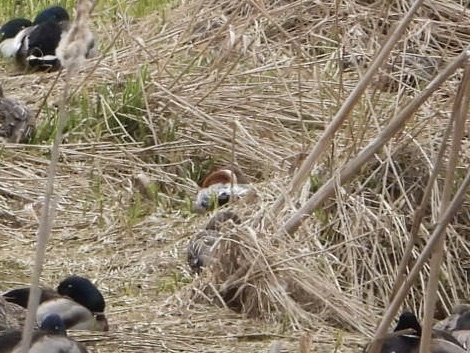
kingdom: Animalia
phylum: Chordata
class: Aves
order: Anseriformes
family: Anatidae
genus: Mareca
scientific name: Mareca penelope
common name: Eurasian wigeon
